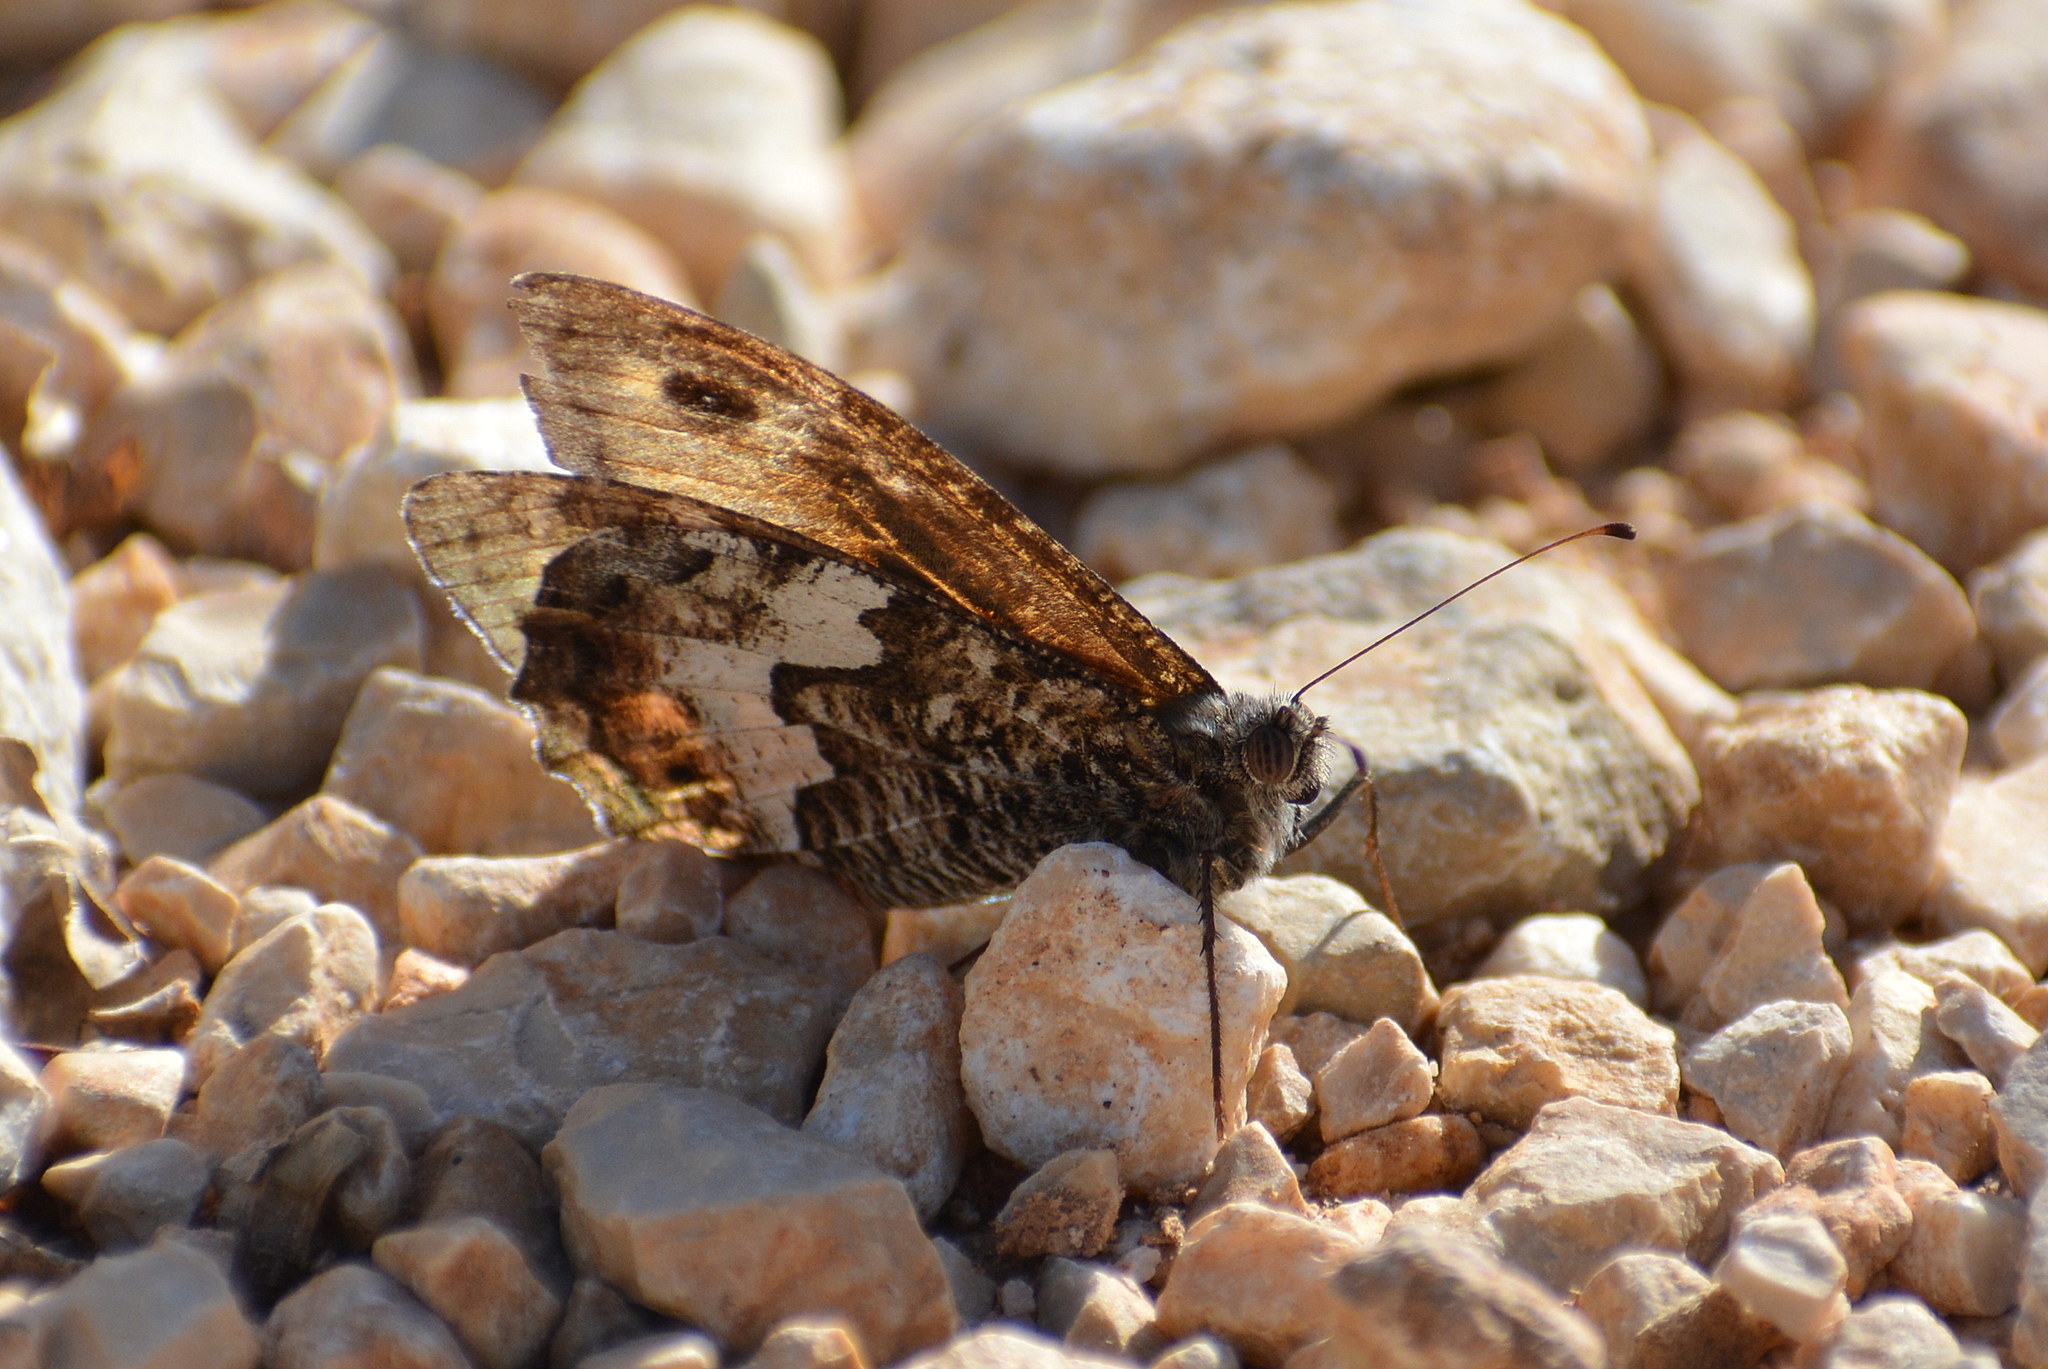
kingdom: Animalia
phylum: Arthropoda
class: Insecta
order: Lepidoptera
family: Nymphalidae
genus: Hipparchia
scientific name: Hipparchia semele
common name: Grayling
